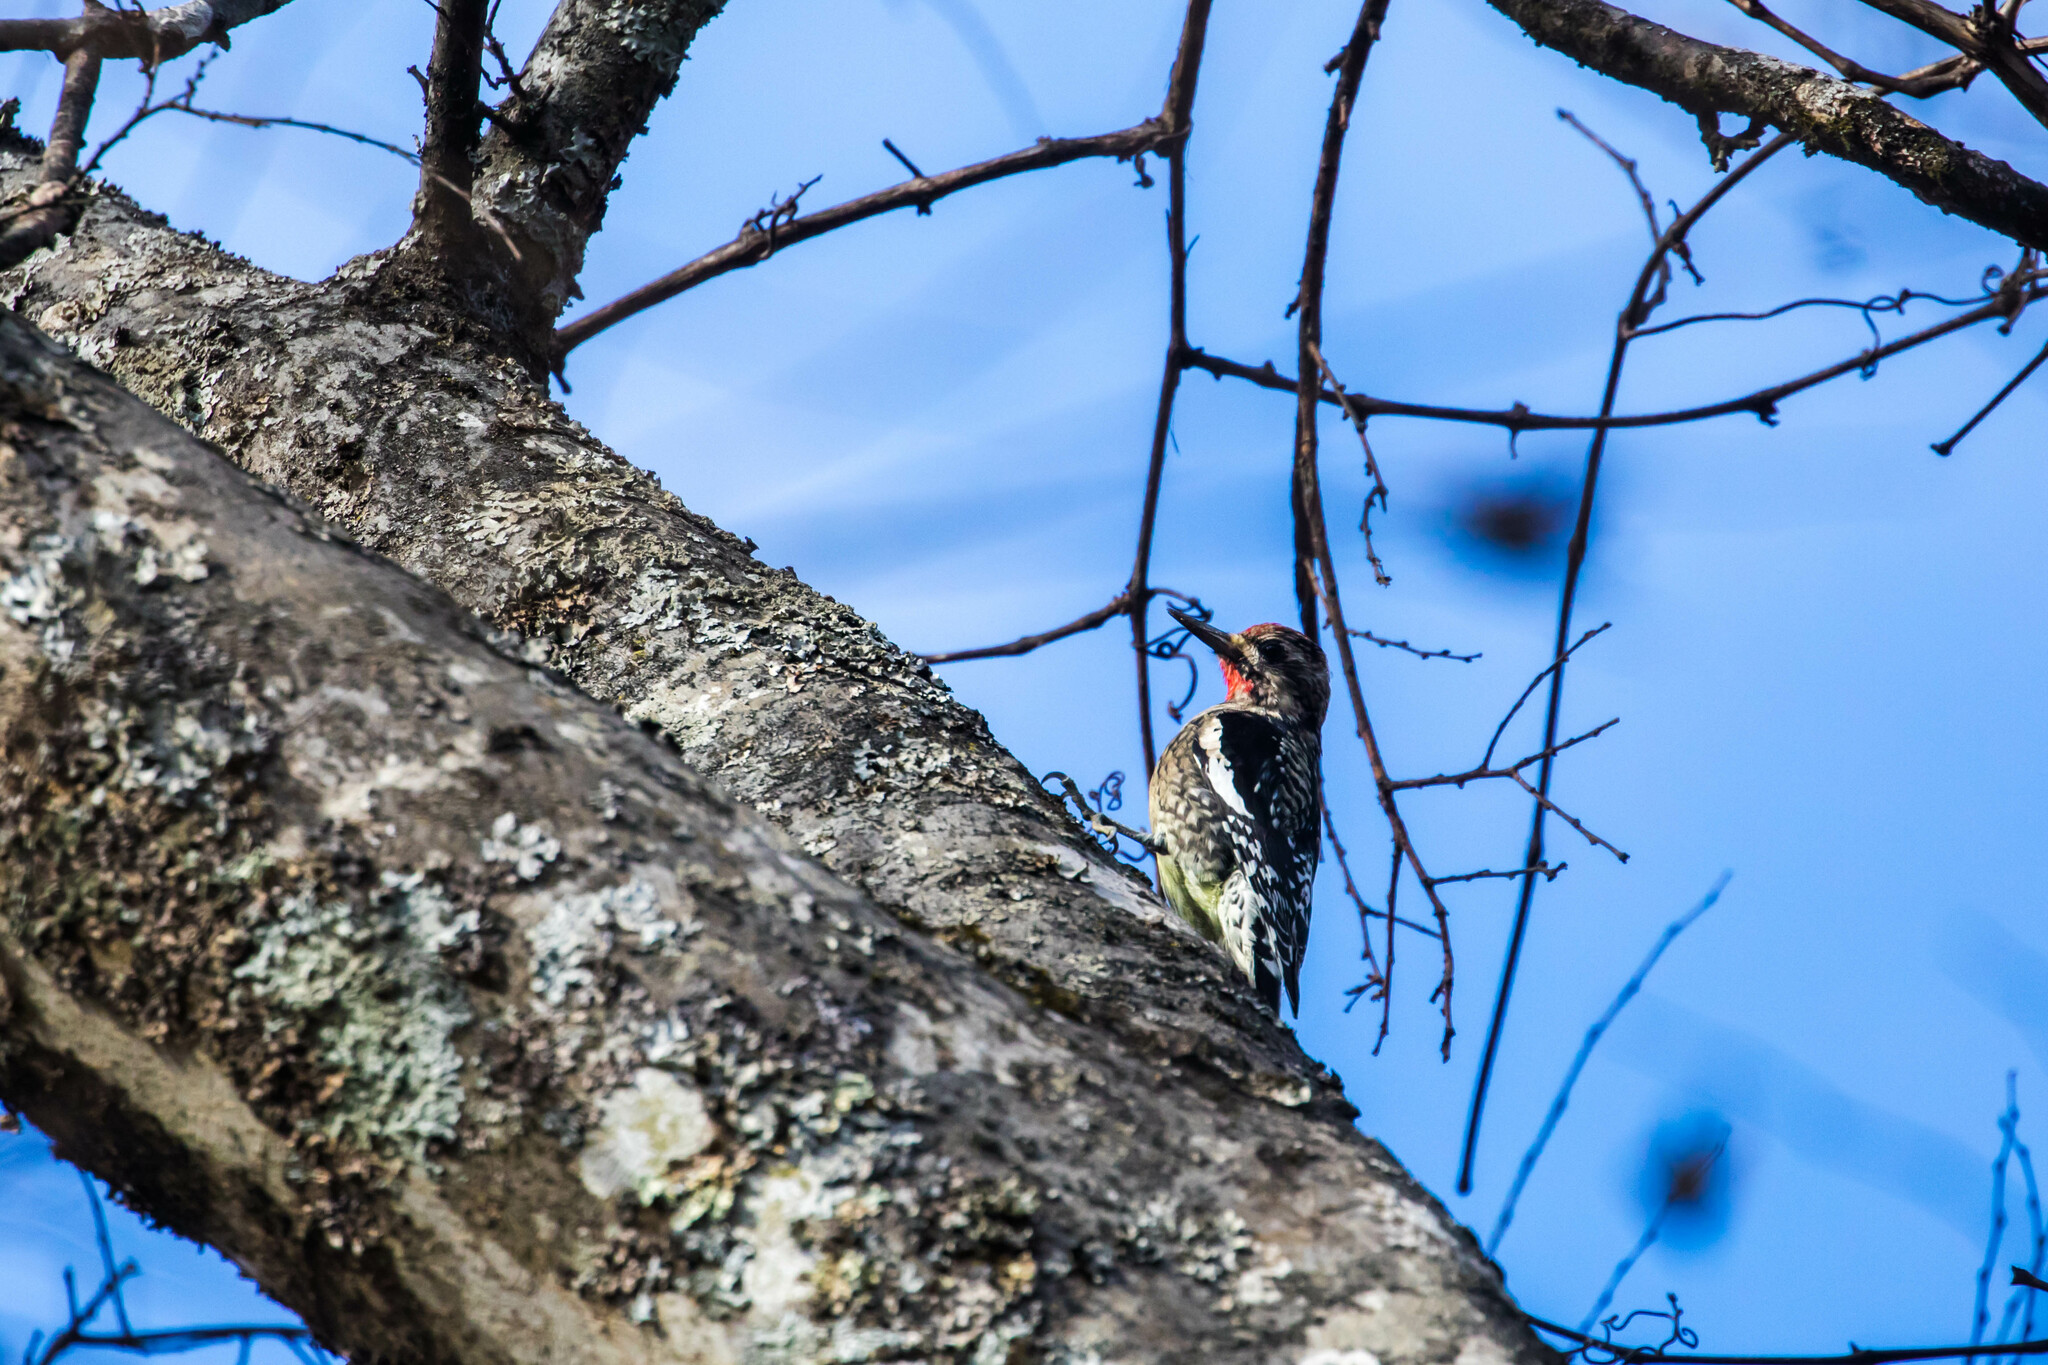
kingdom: Animalia
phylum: Chordata
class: Aves
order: Piciformes
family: Picidae
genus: Sphyrapicus
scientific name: Sphyrapicus varius
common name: Yellow-bellied sapsucker
